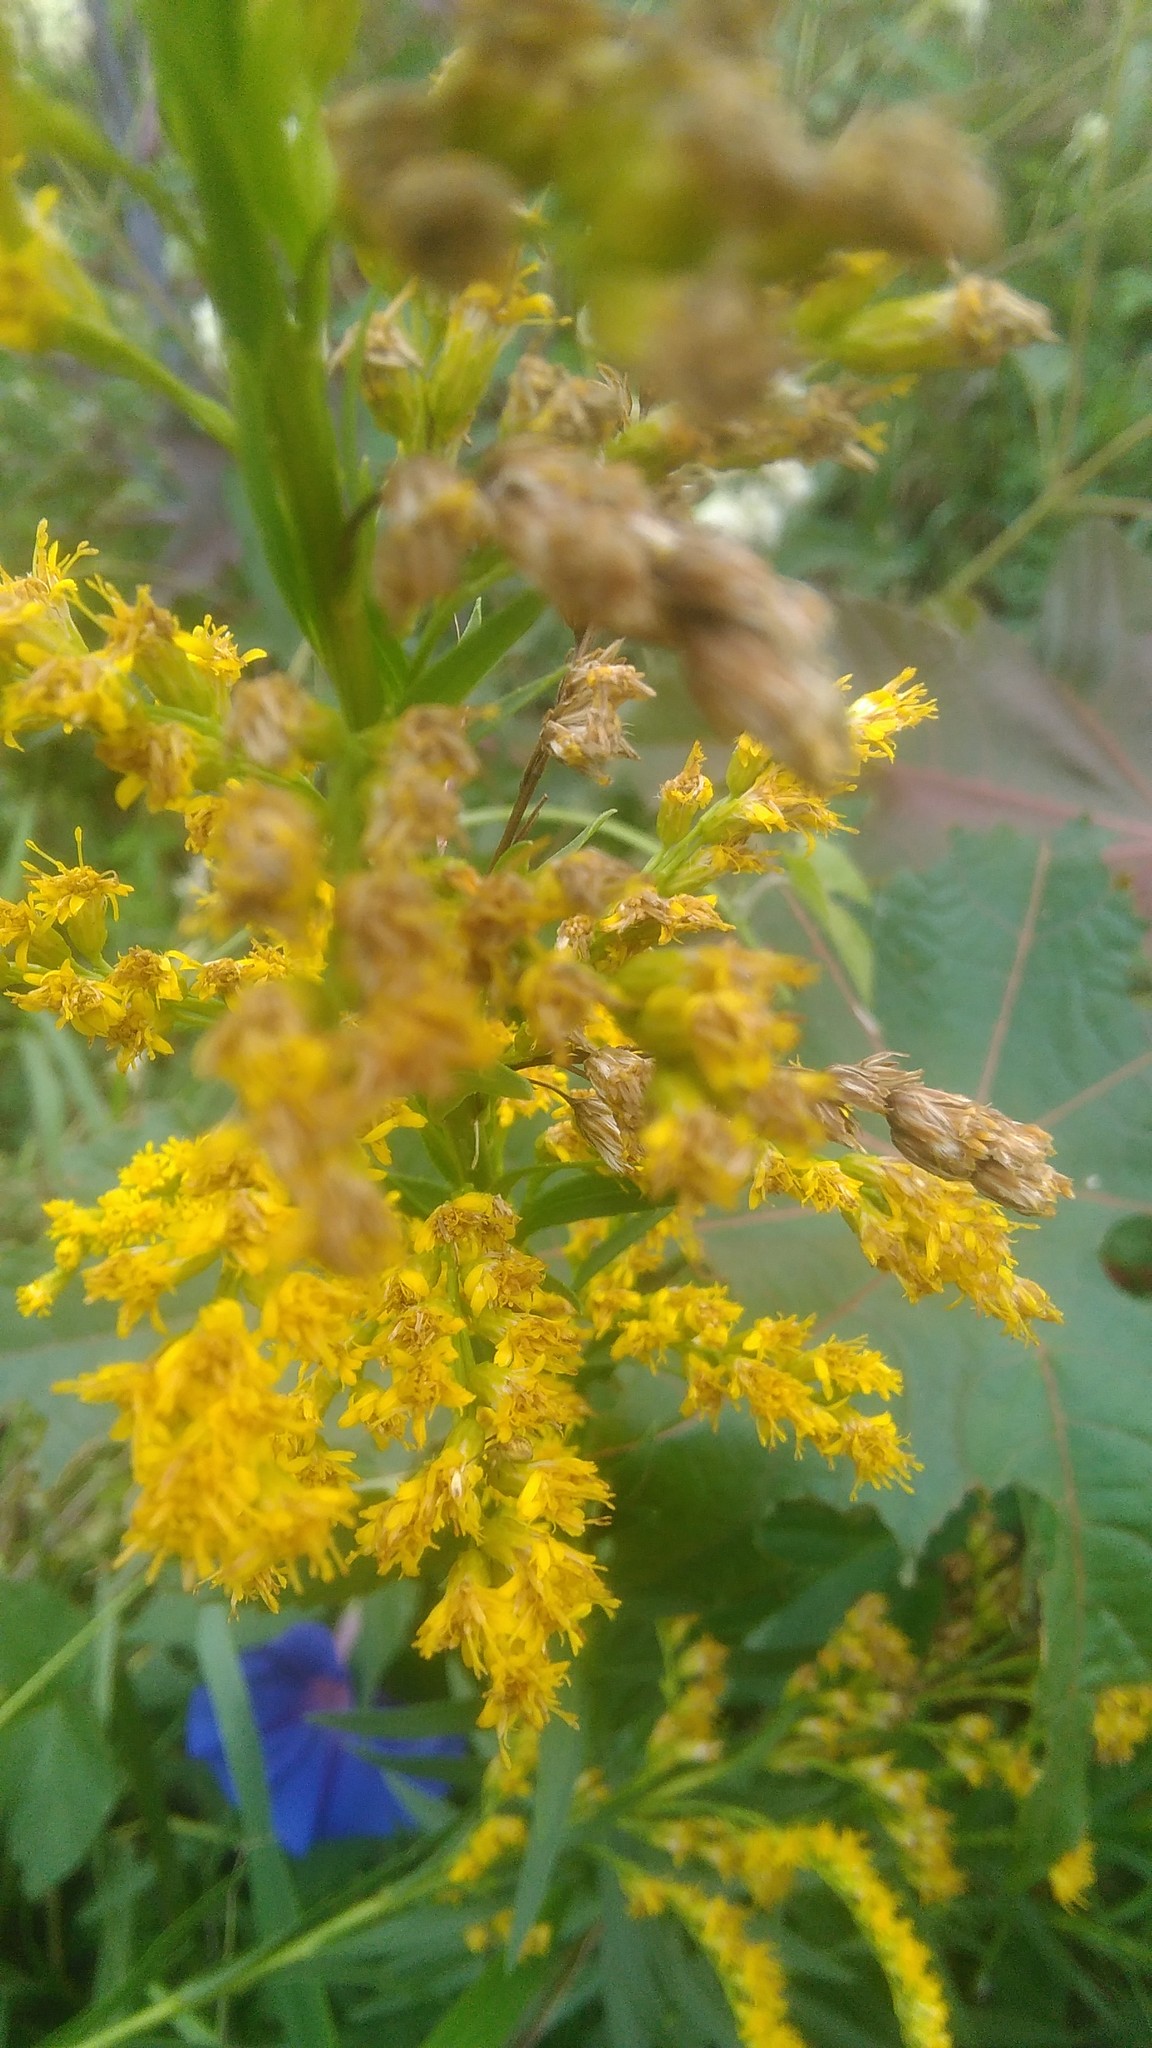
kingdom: Plantae
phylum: Tracheophyta
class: Magnoliopsida
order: Asterales
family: Asteraceae
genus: Solidago
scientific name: Solidago chilensis
